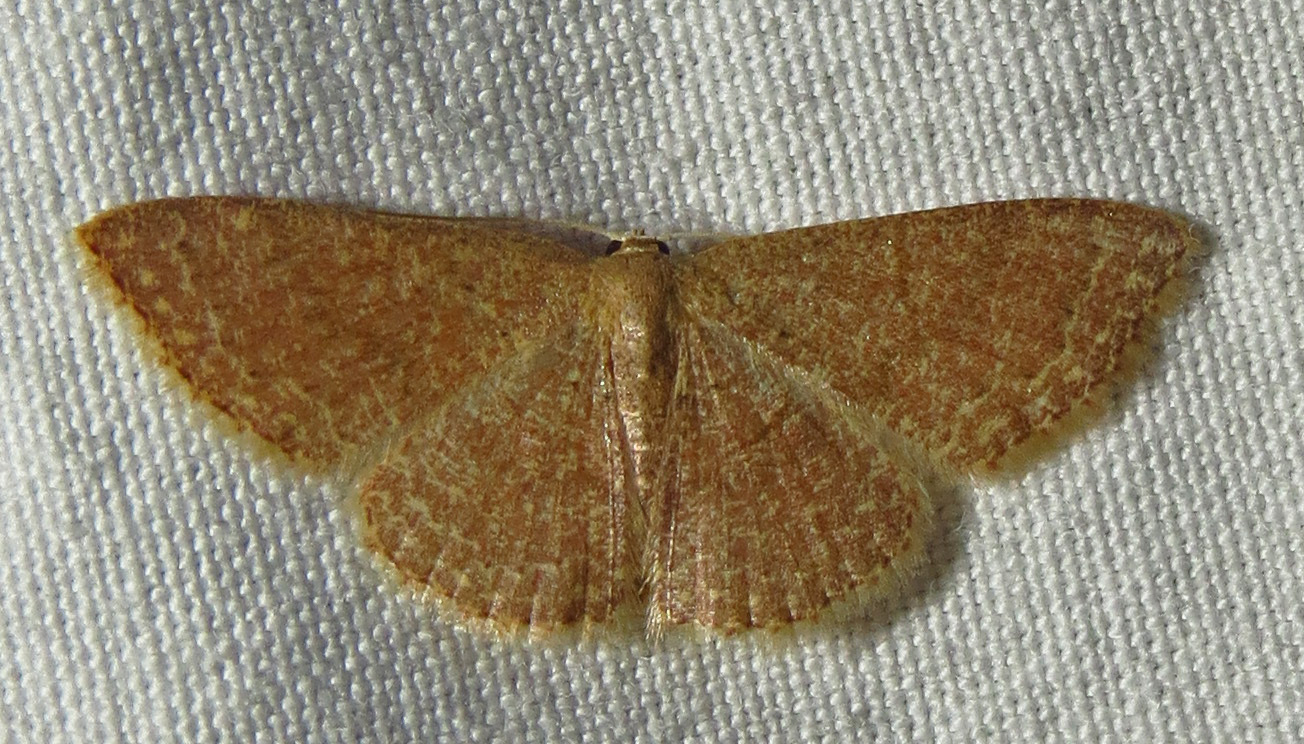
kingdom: Animalia
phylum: Arthropoda
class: Insecta
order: Lepidoptera
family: Geometridae
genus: Pleuroprucha
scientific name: Pleuroprucha insulsaria
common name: Common tan wave
